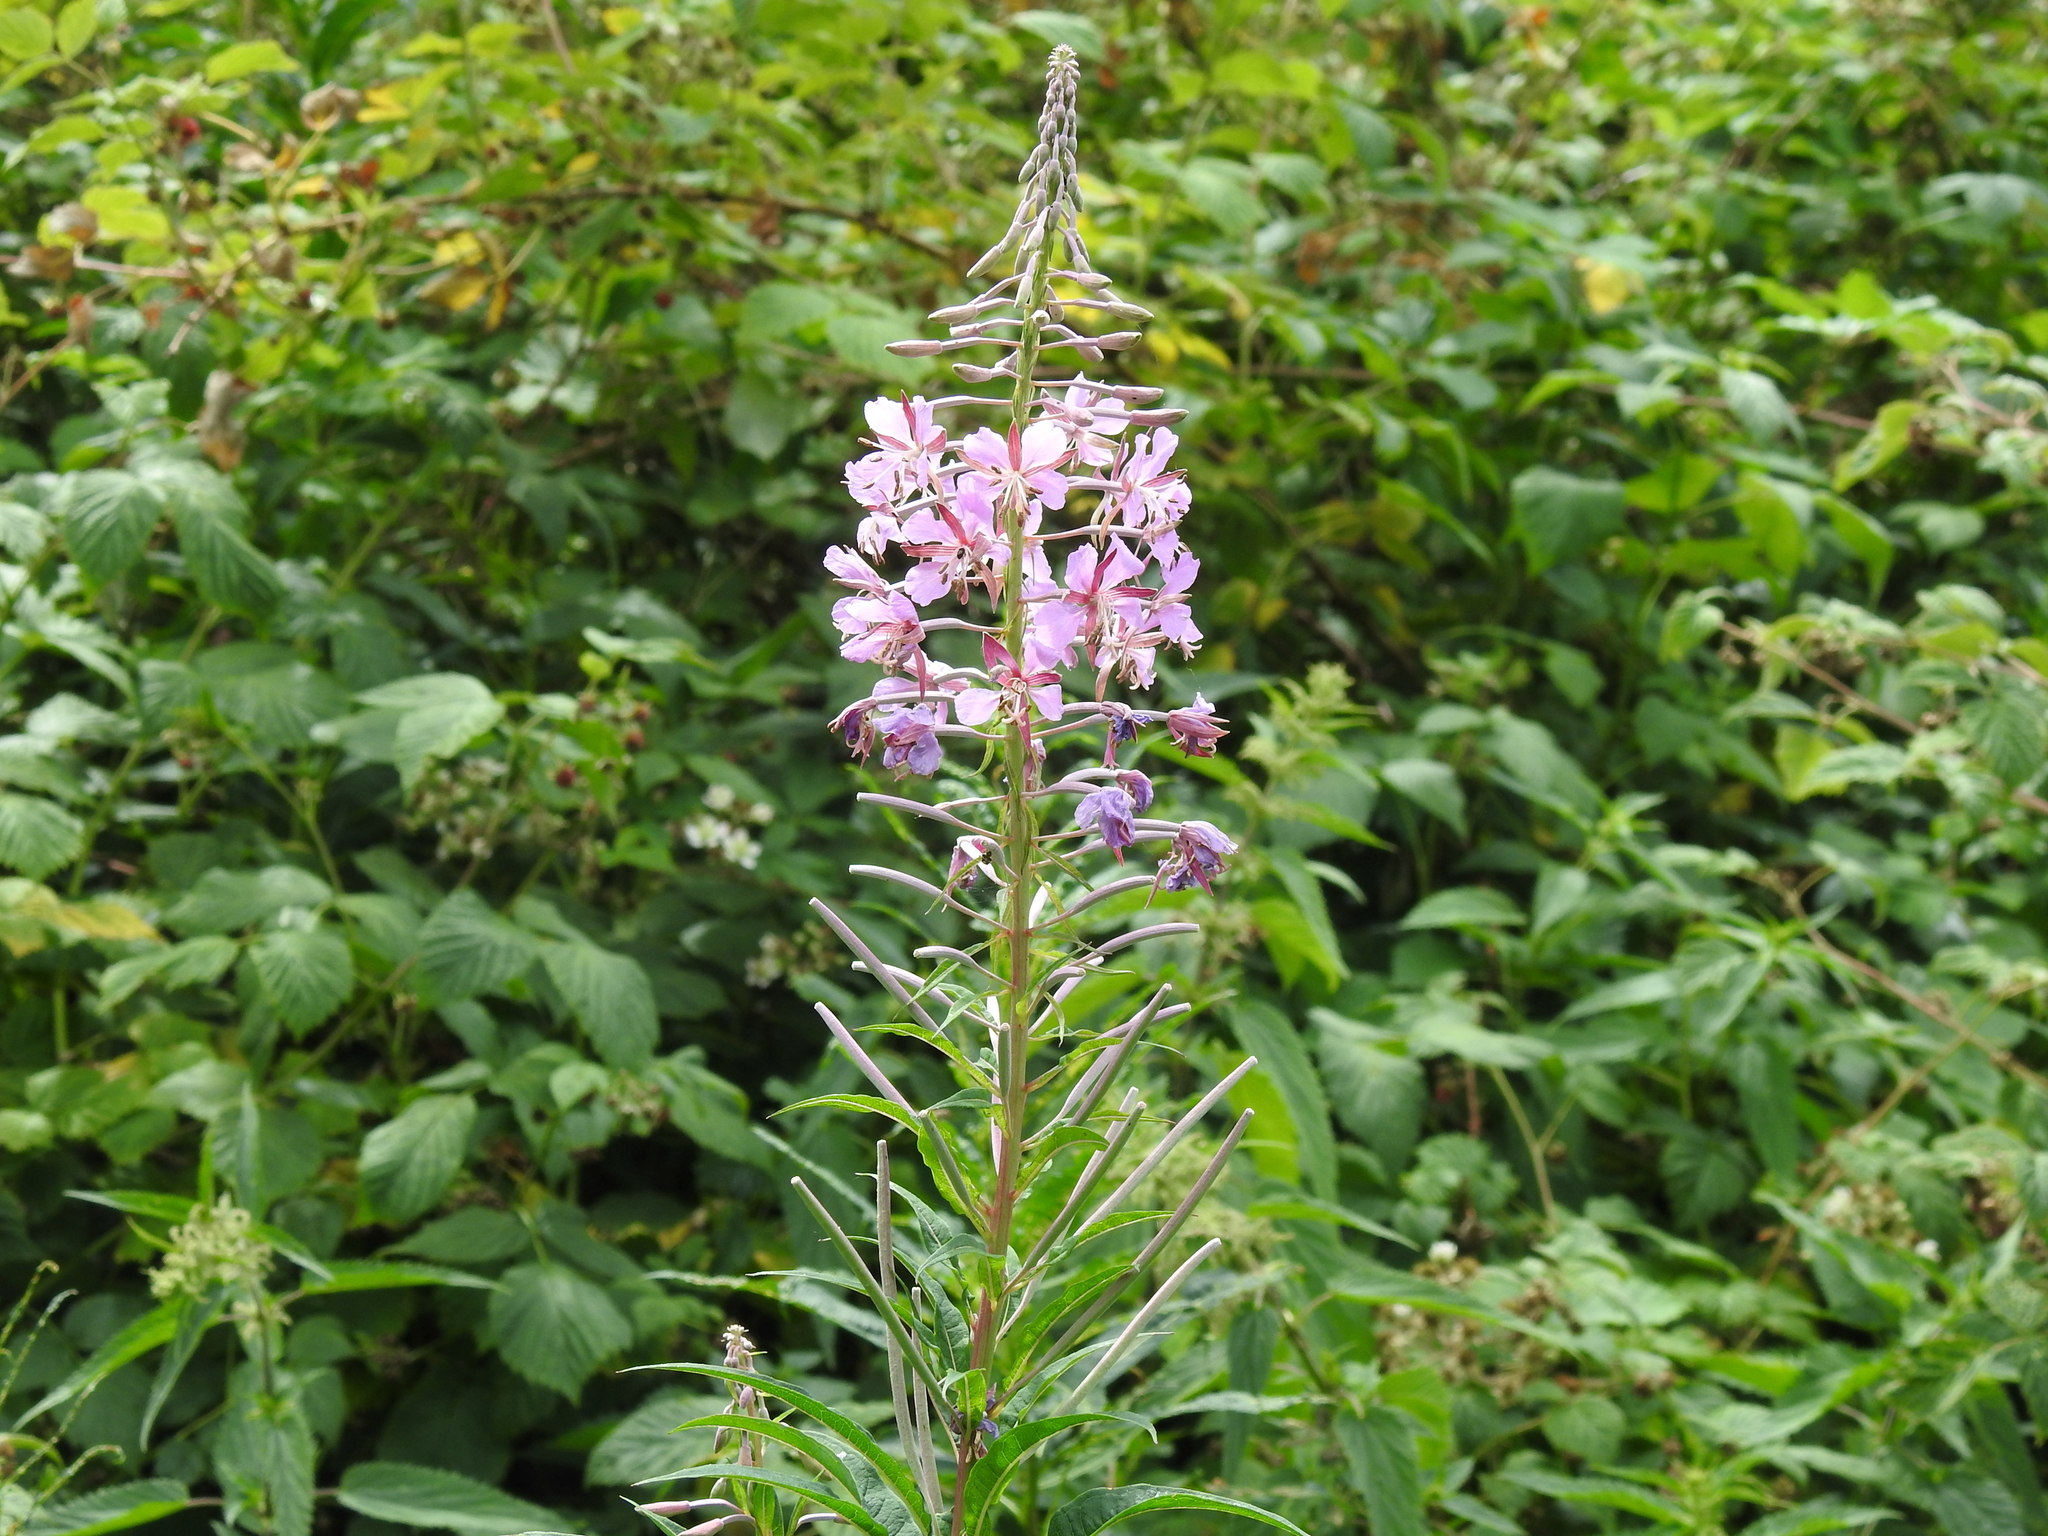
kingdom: Plantae
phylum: Tracheophyta
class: Magnoliopsida
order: Myrtales
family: Onagraceae
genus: Chamaenerion
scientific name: Chamaenerion angustifolium
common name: Fireweed
